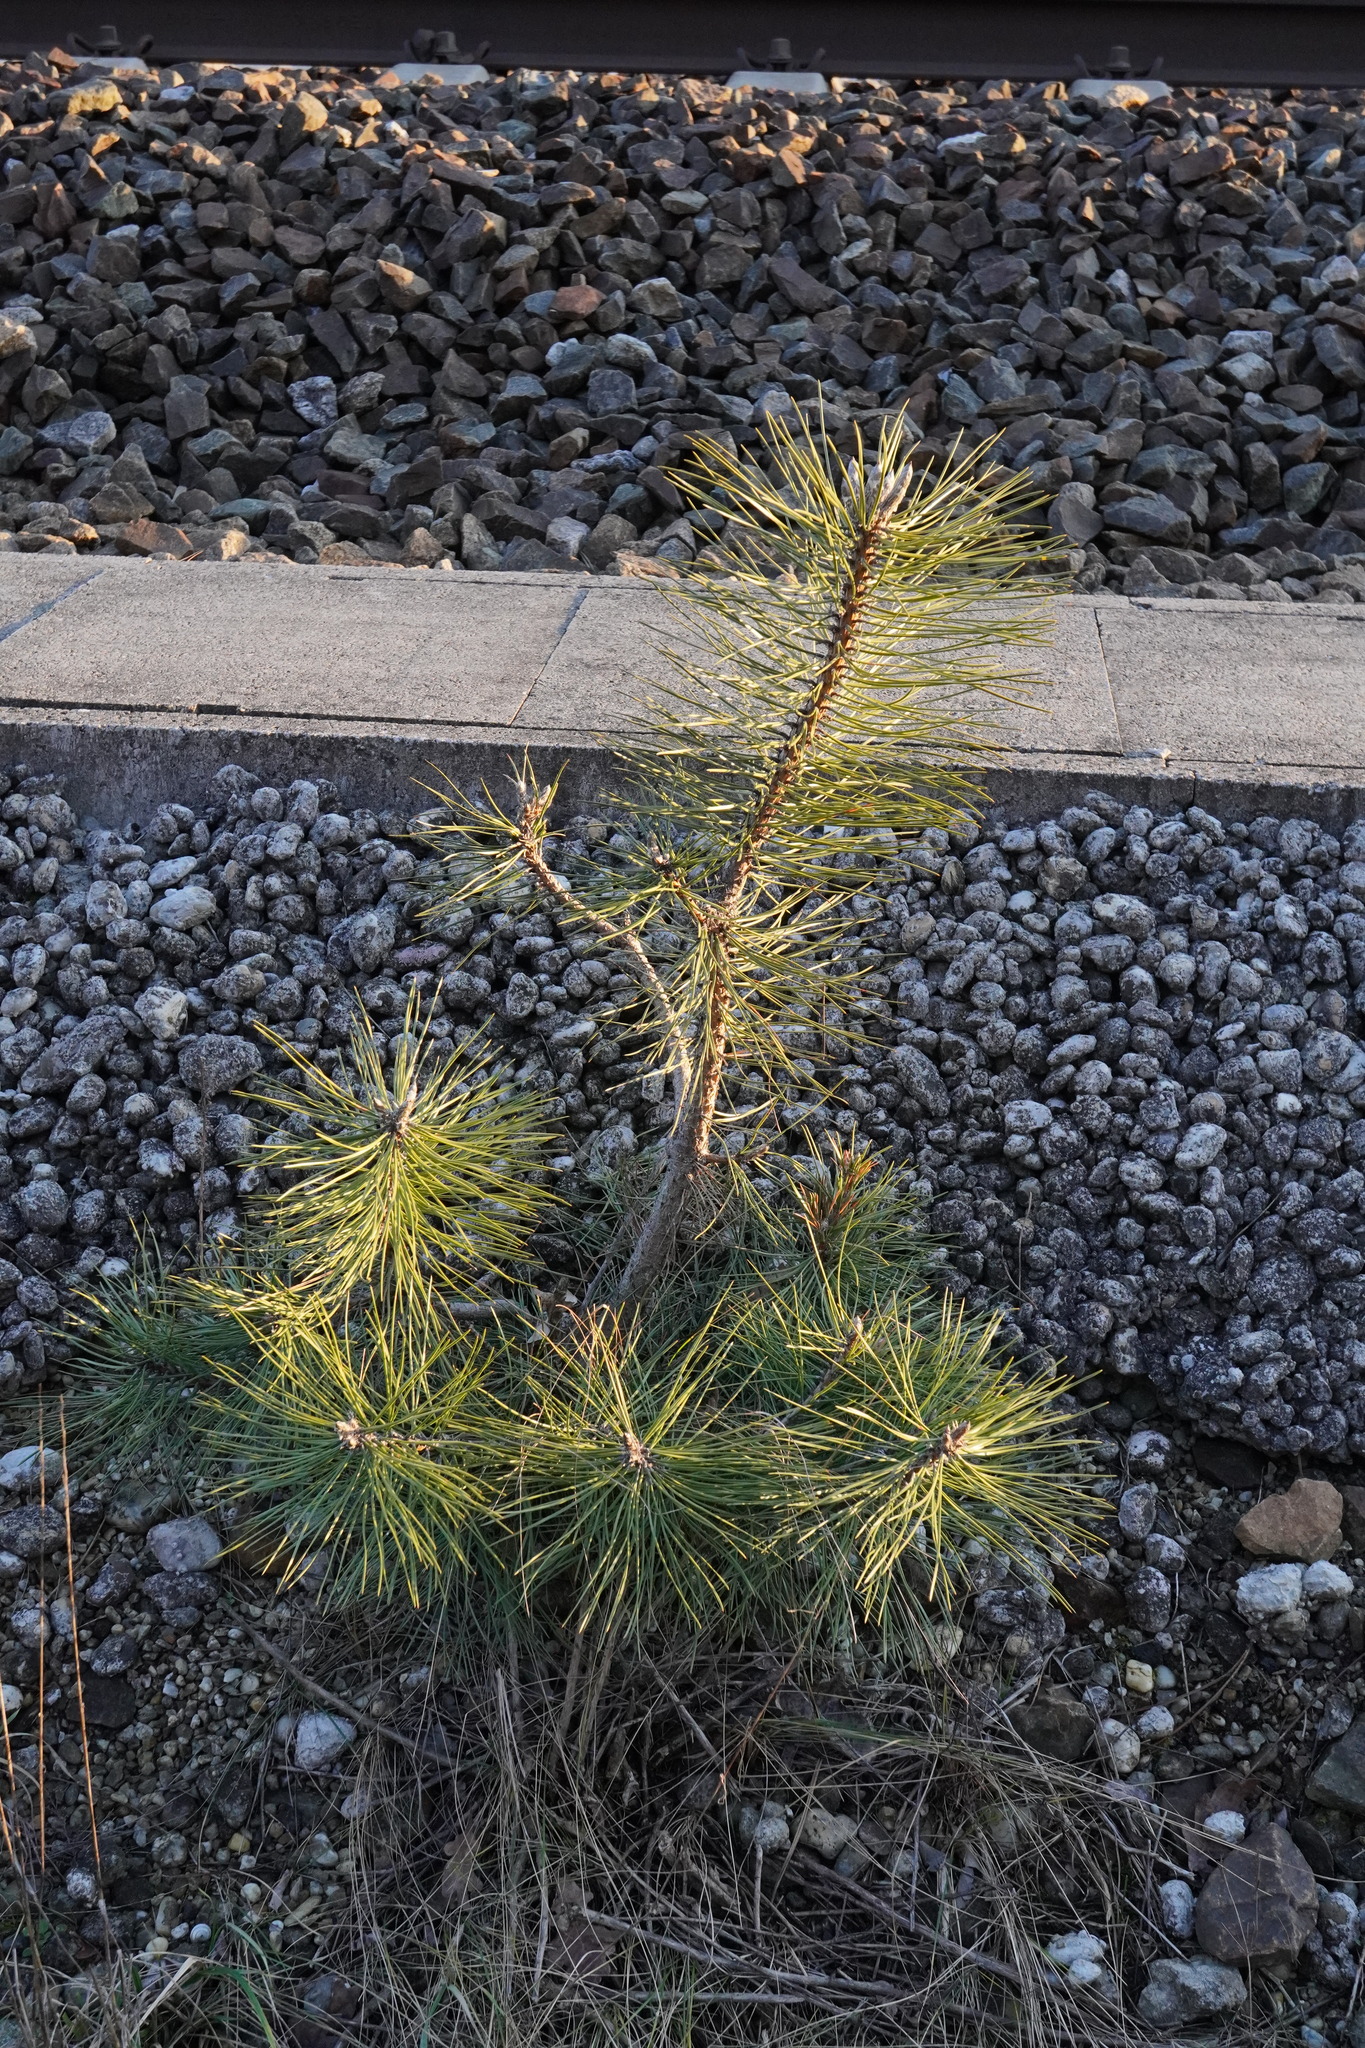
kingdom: Plantae
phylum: Tracheophyta
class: Pinopsida
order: Pinales
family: Pinaceae
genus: Pinus
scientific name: Pinus nigra
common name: Austrian pine
